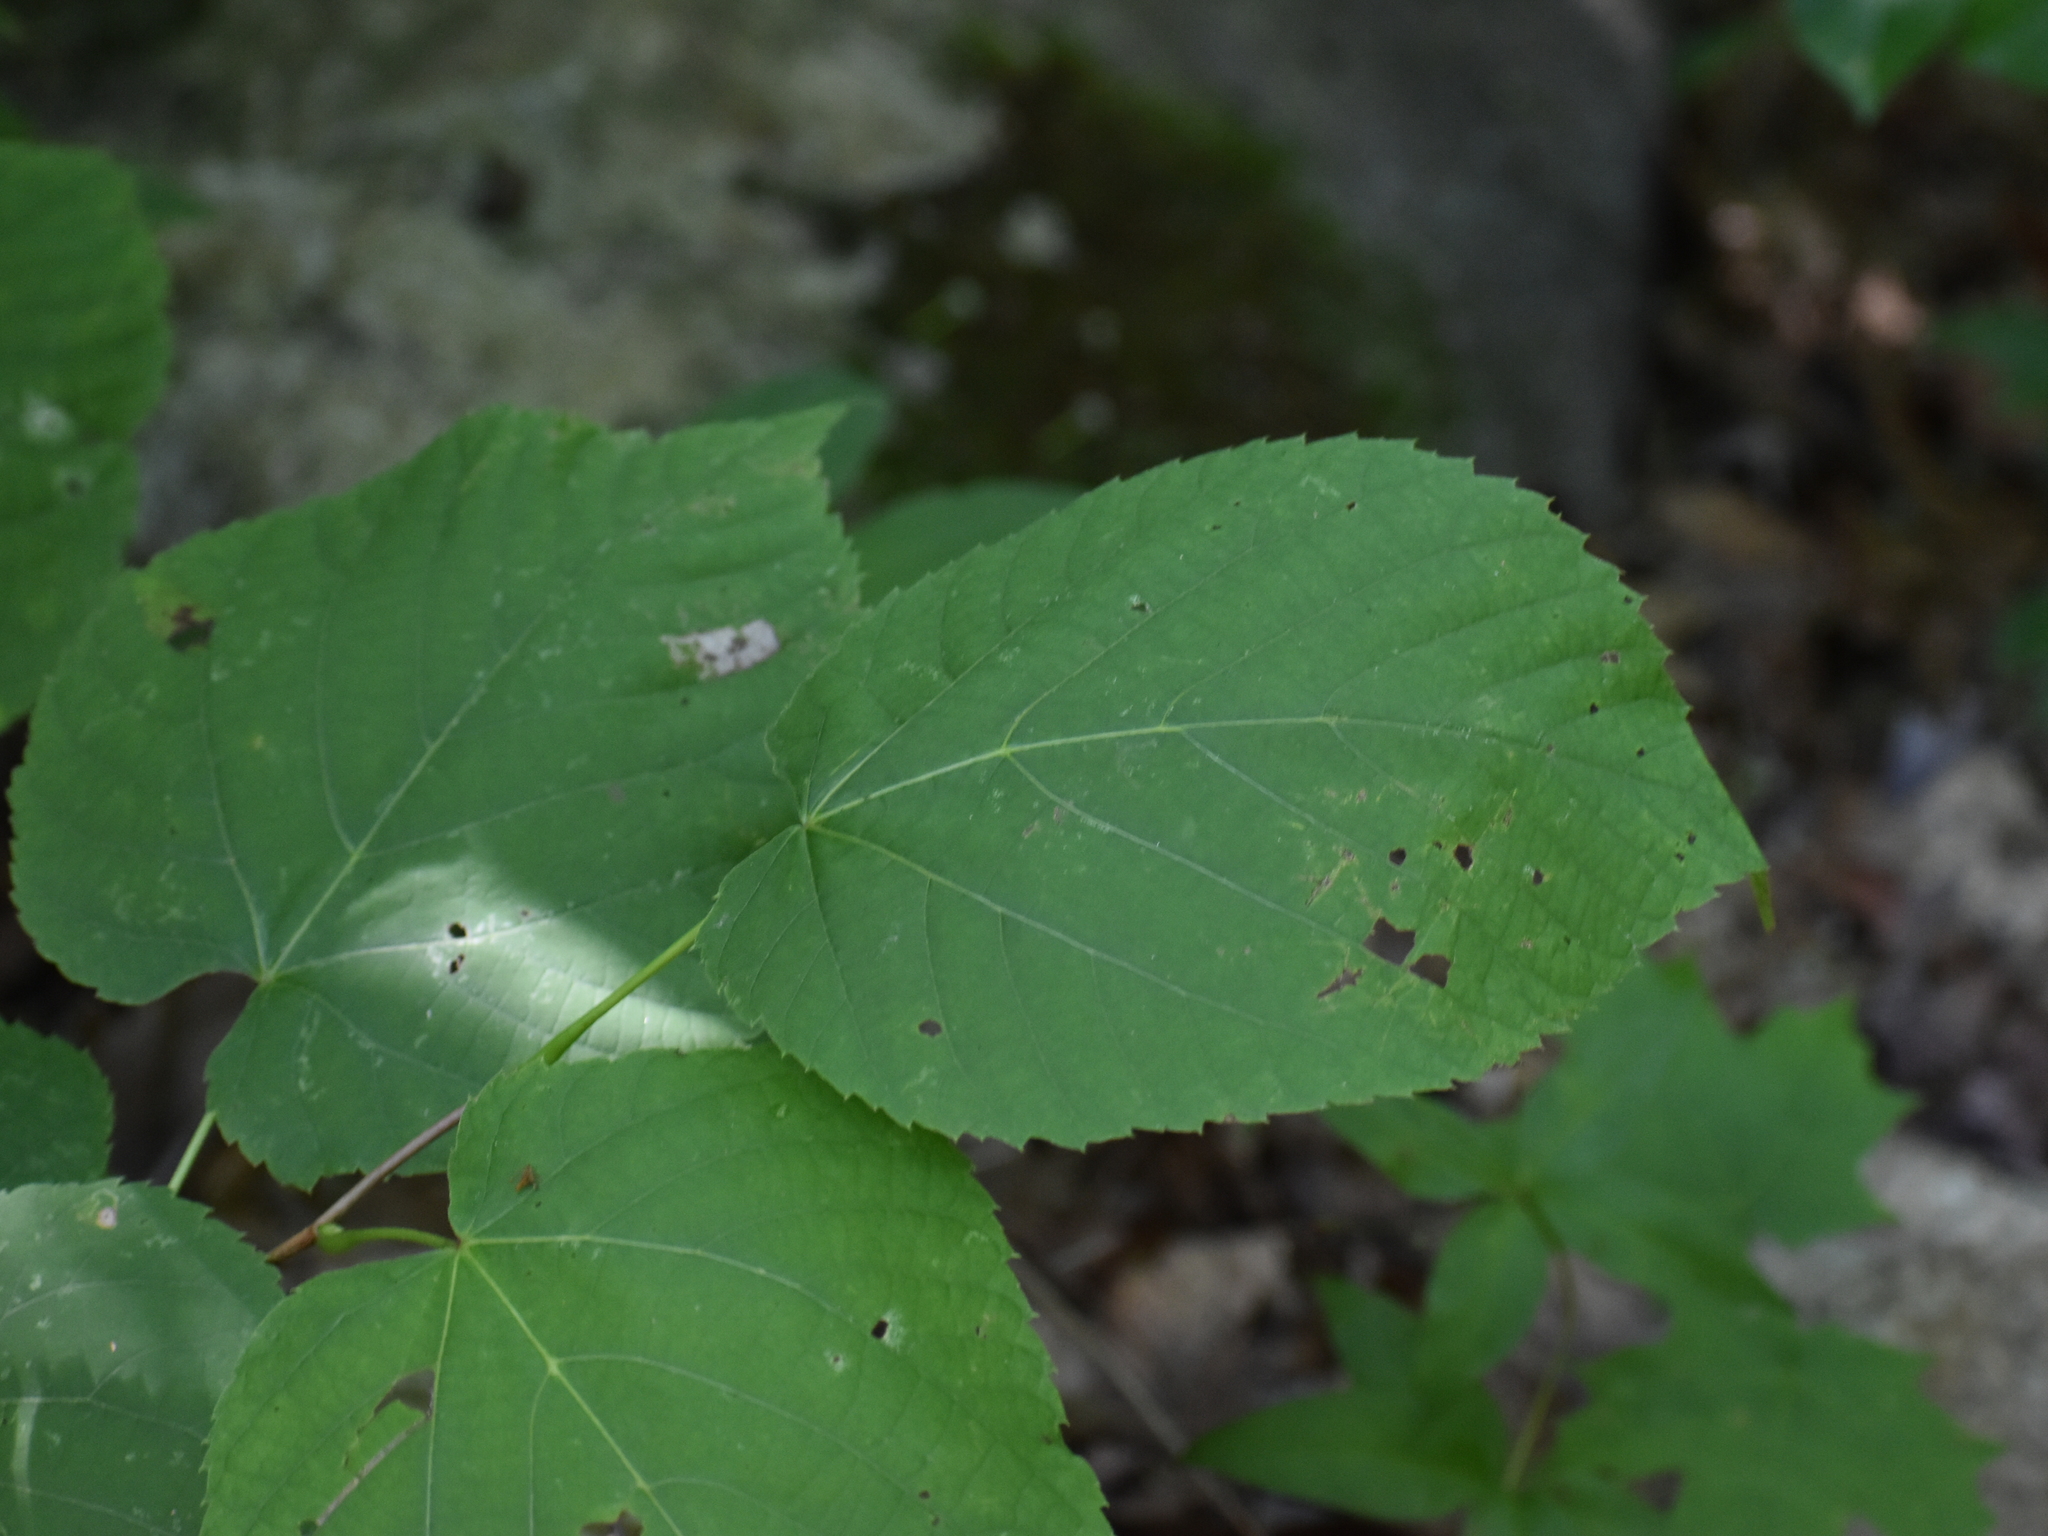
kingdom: Plantae
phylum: Tracheophyta
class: Magnoliopsida
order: Malvales
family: Malvaceae
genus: Tilia
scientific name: Tilia americana
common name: Basswood
